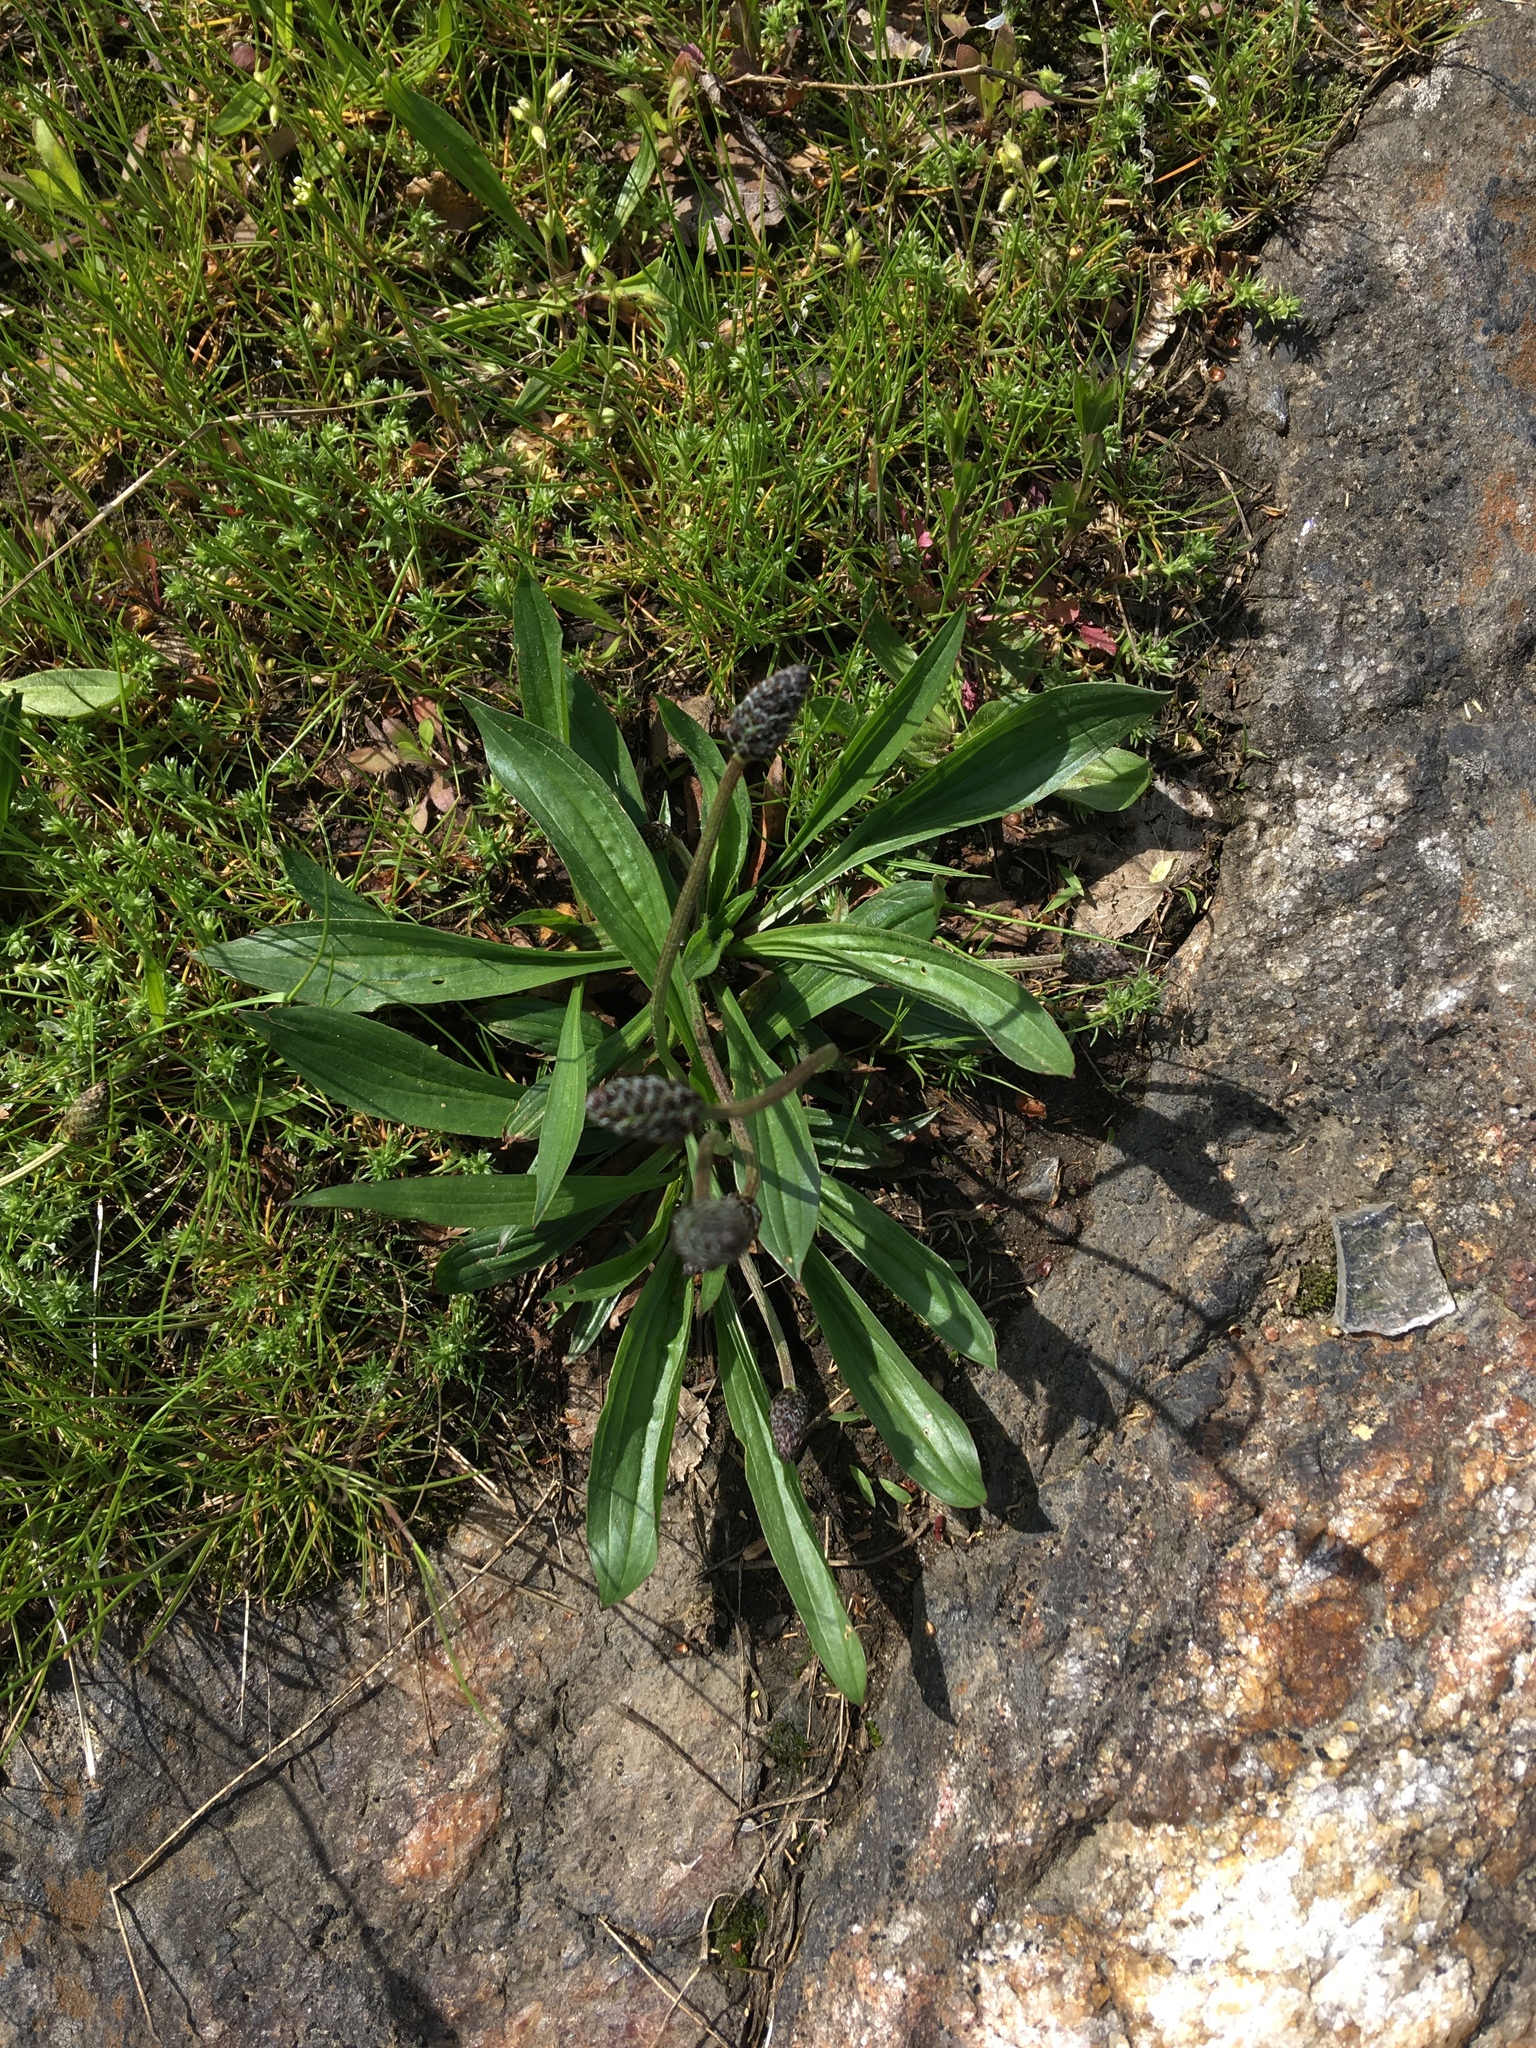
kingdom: Plantae
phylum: Tracheophyta
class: Magnoliopsida
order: Lamiales
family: Plantaginaceae
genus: Plantago
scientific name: Plantago lanceolata
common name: Ribwort plantain
